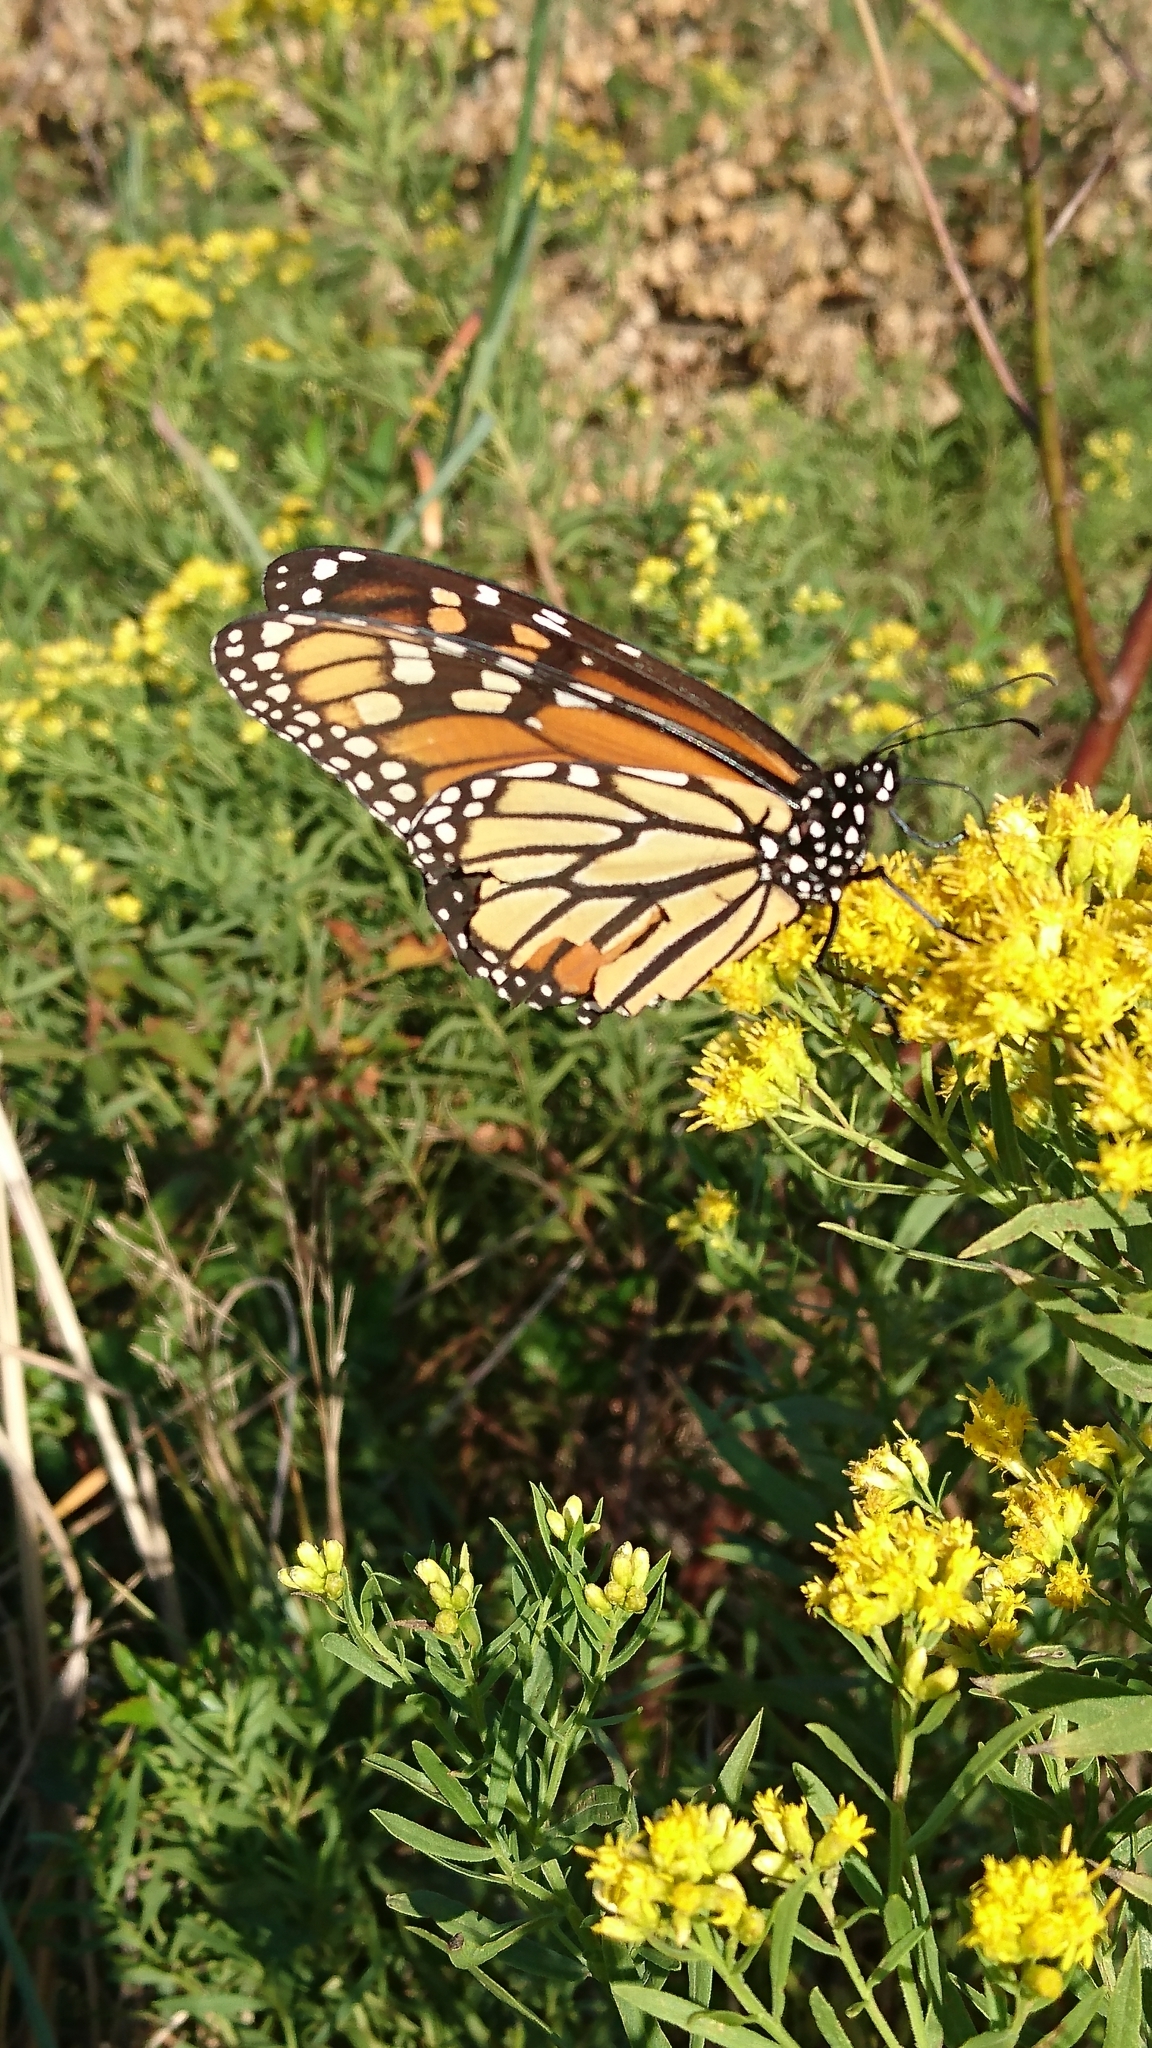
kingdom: Animalia
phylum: Arthropoda
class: Insecta
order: Lepidoptera
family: Nymphalidae
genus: Danaus
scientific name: Danaus plexippus
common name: Monarch
